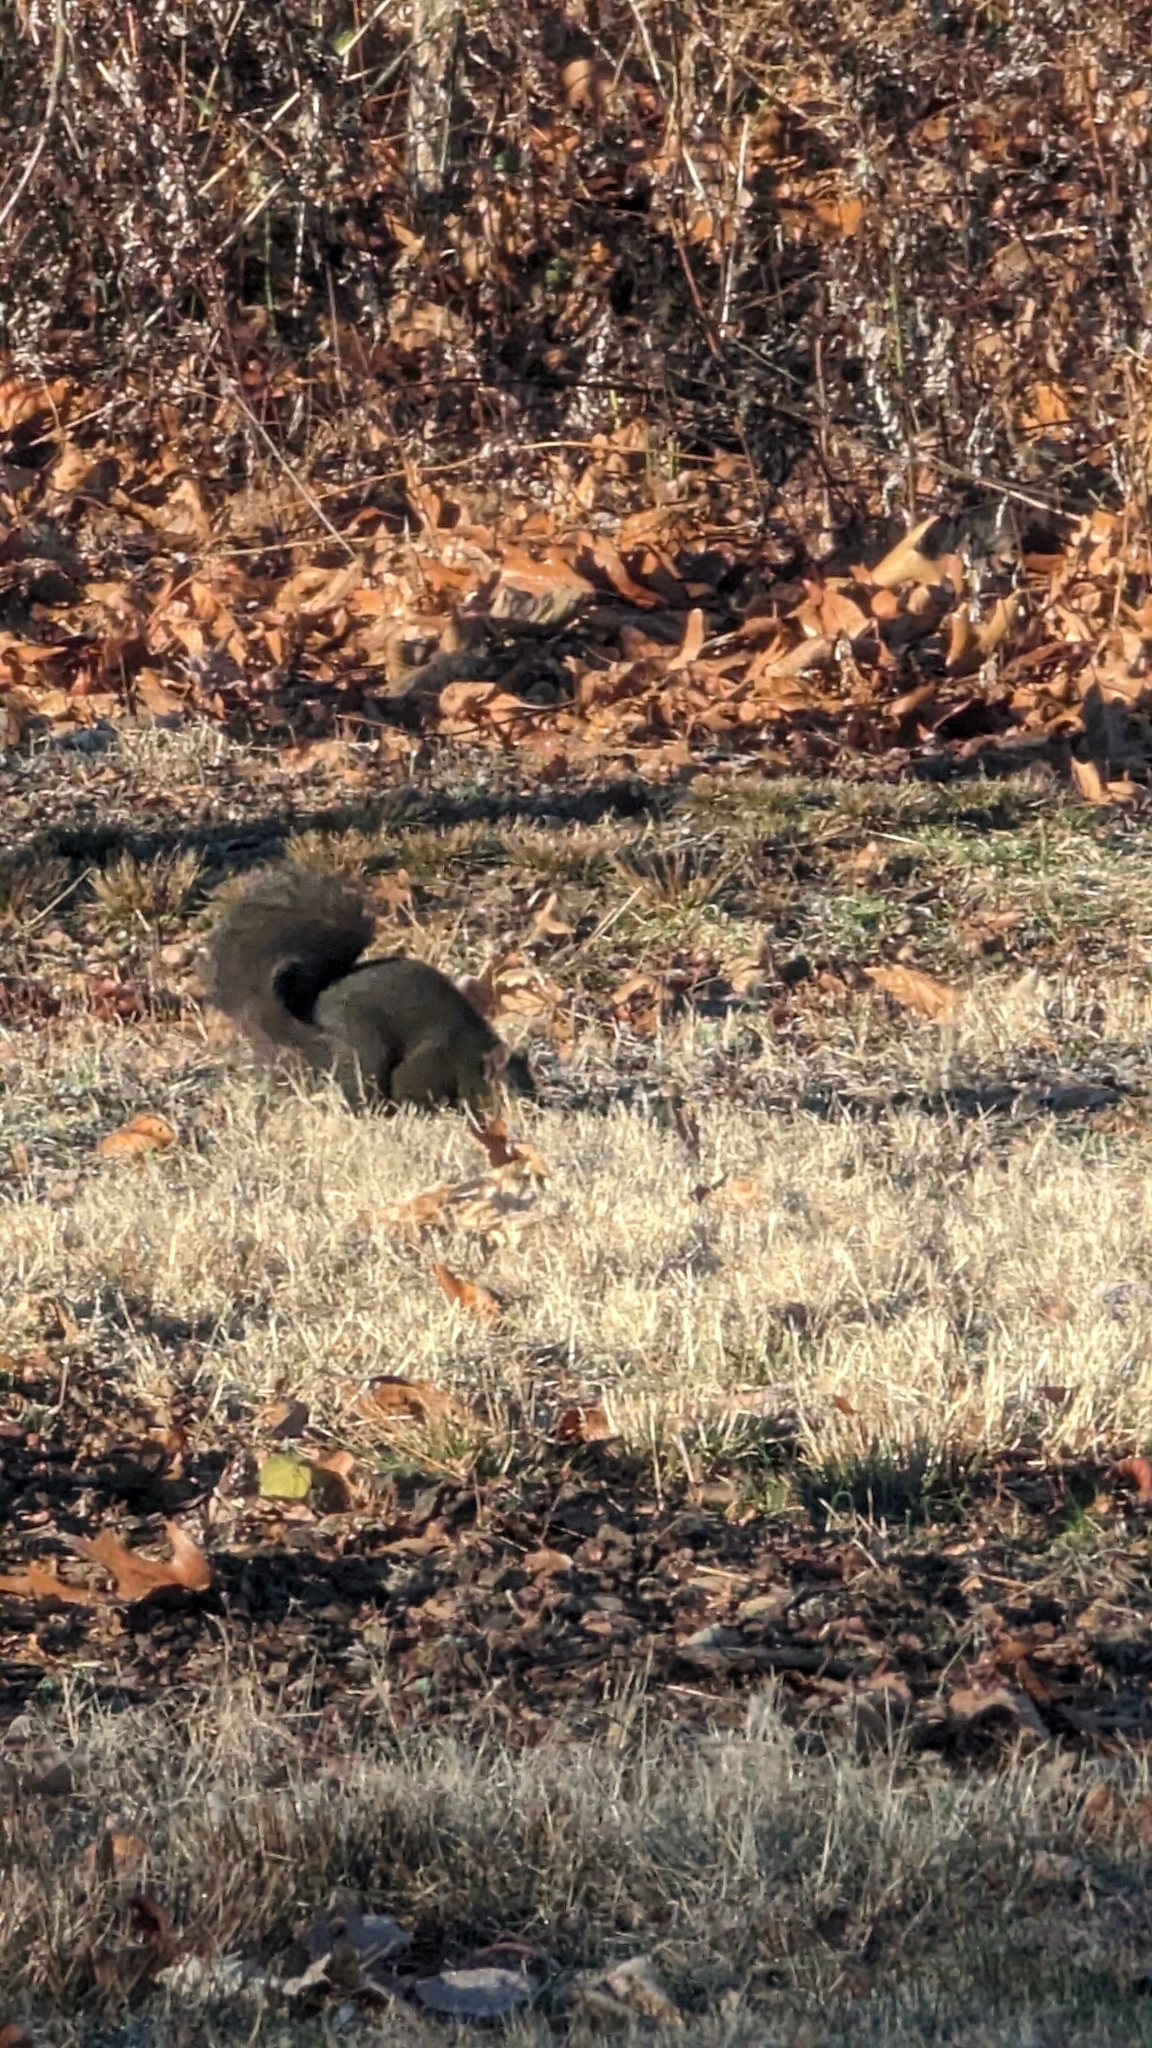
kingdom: Animalia
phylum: Chordata
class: Mammalia
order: Rodentia
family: Sciuridae
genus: Sciurus
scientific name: Sciurus carolinensis
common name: Eastern gray squirrel
